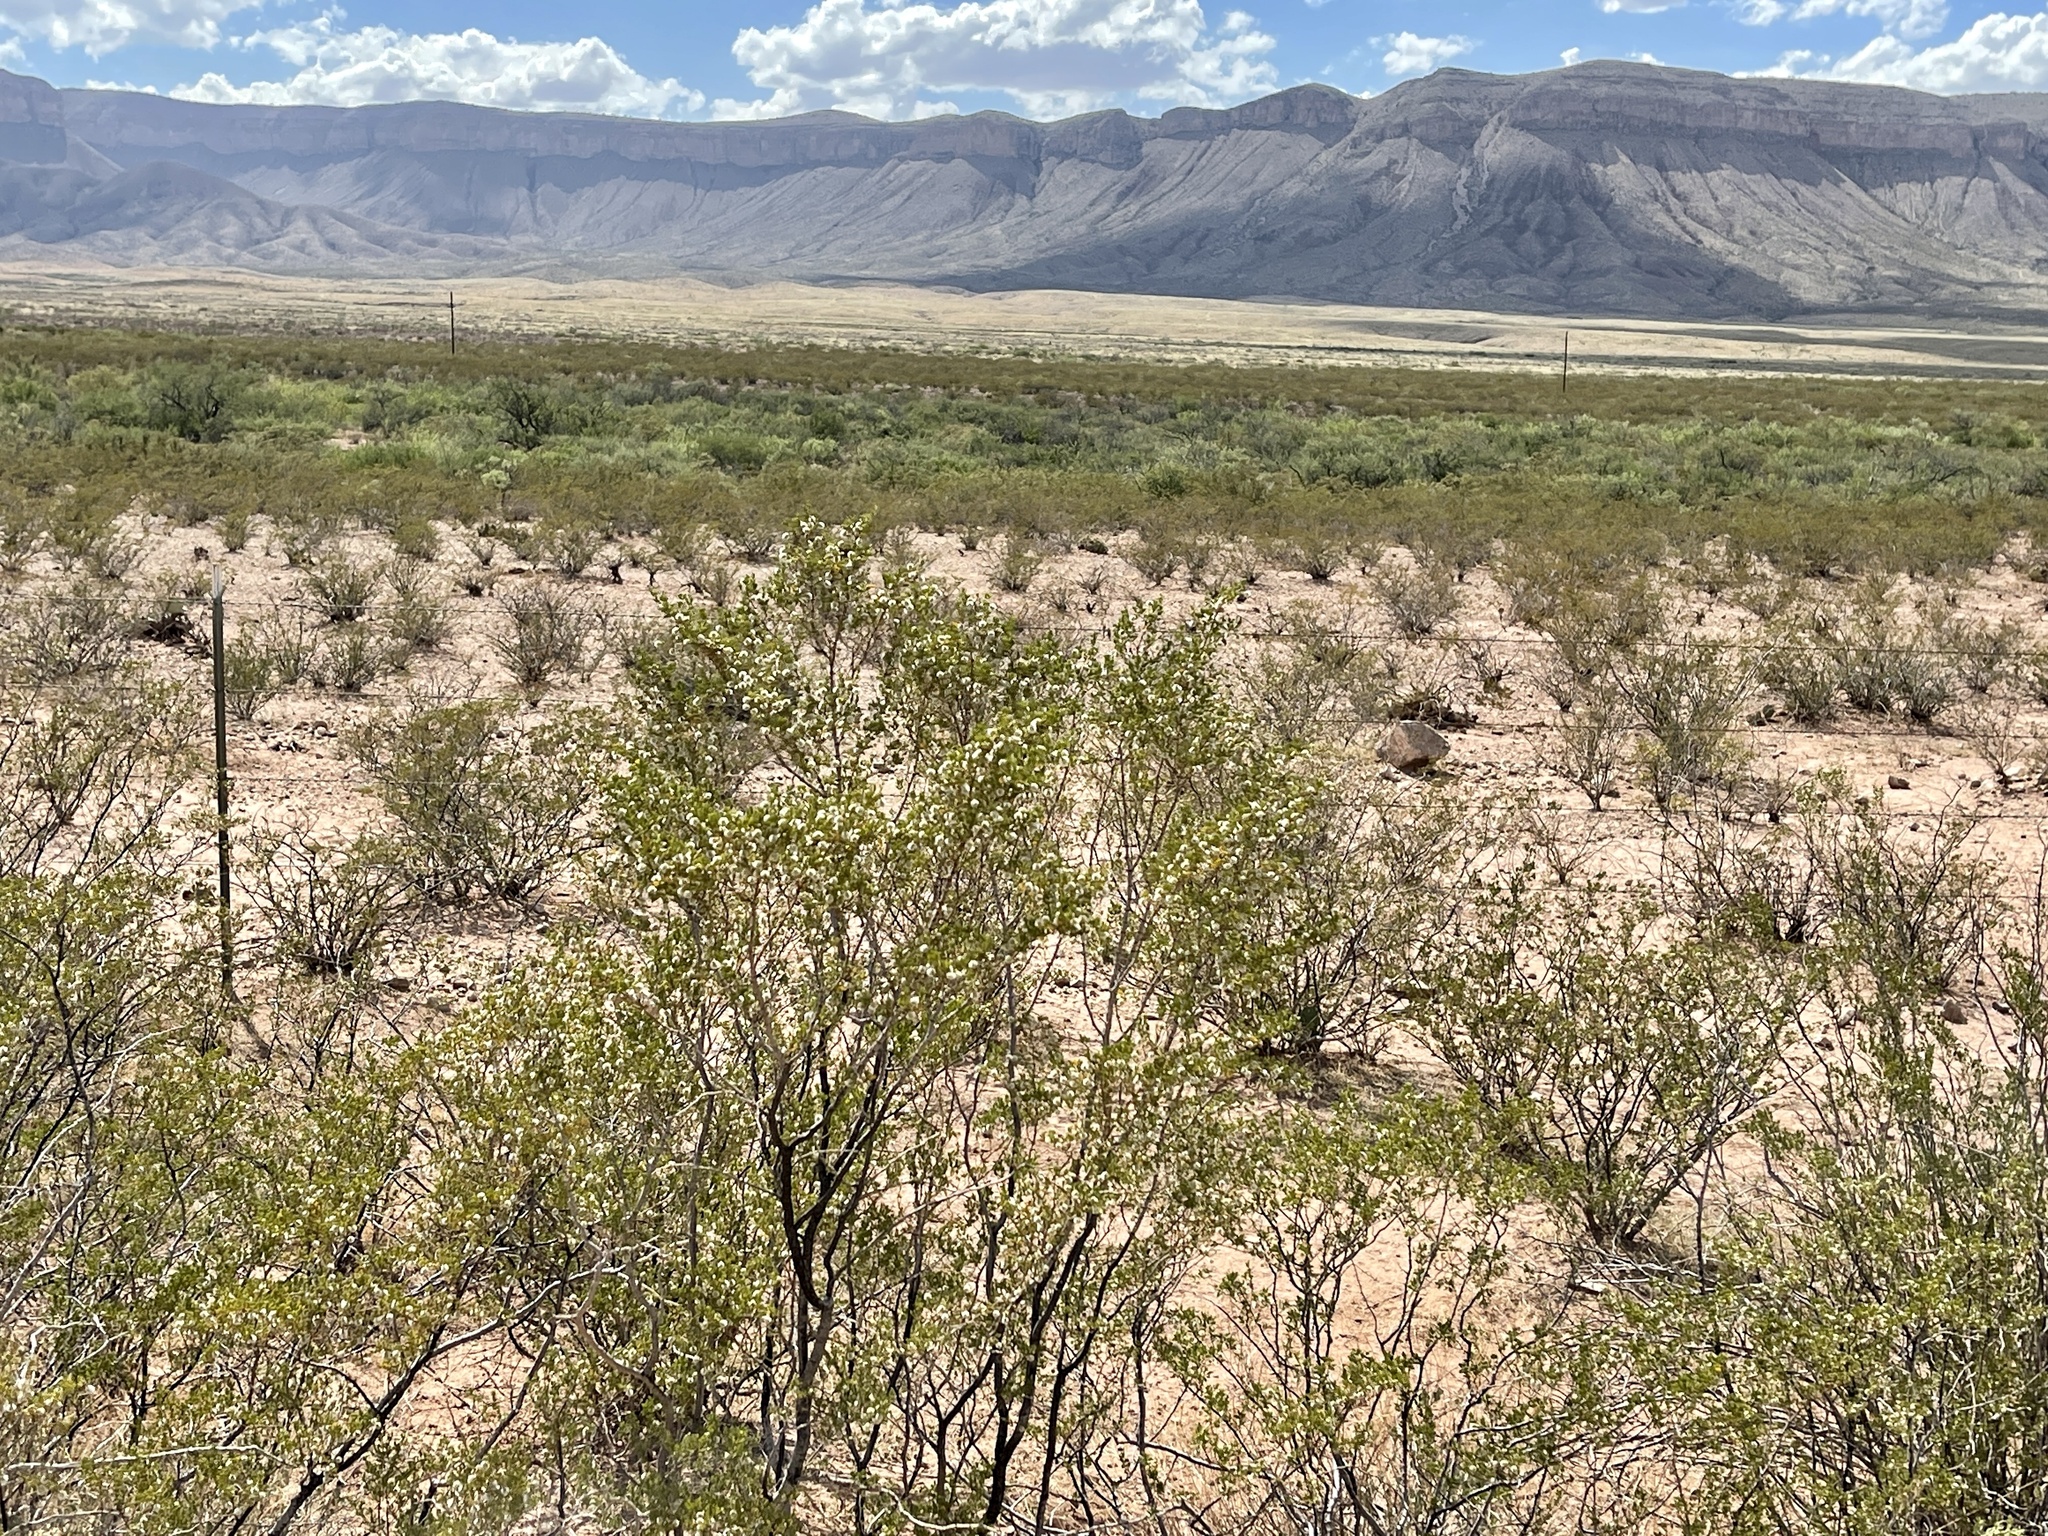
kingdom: Plantae
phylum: Tracheophyta
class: Magnoliopsida
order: Zygophyllales
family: Zygophyllaceae
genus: Larrea
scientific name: Larrea tridentata
